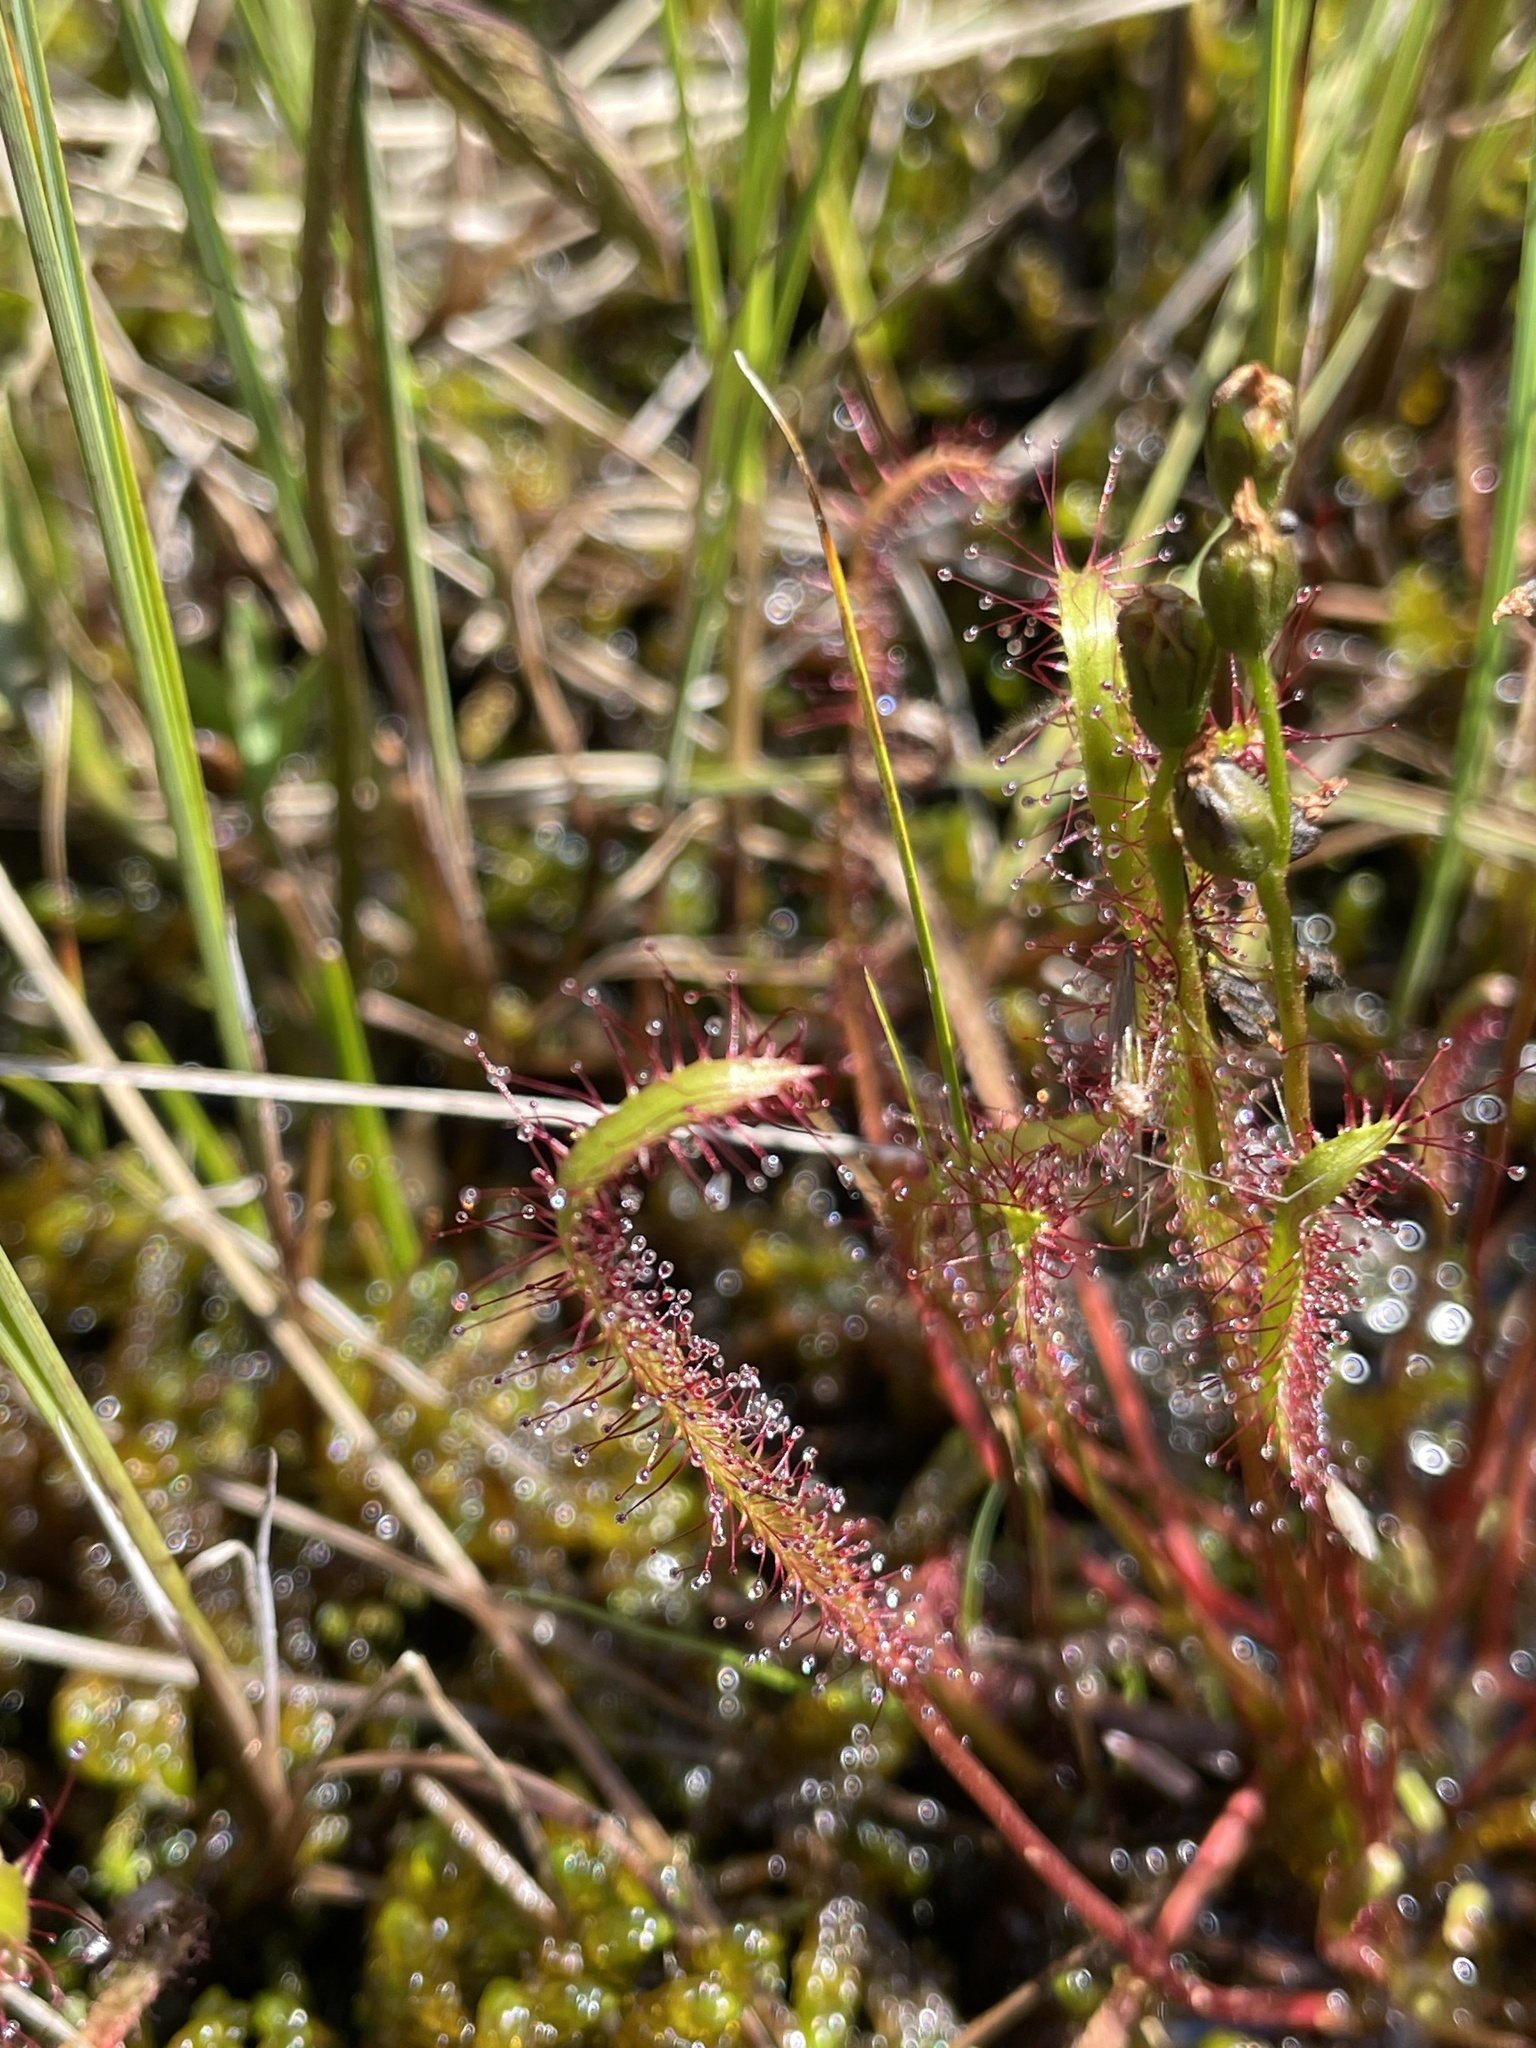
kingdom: Plantae
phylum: Tracheophyta
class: Magnoliopsida
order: Caryophyllales
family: Droseraceae
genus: Drosera
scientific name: Drosera linearis
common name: Linear-leaved sundew
